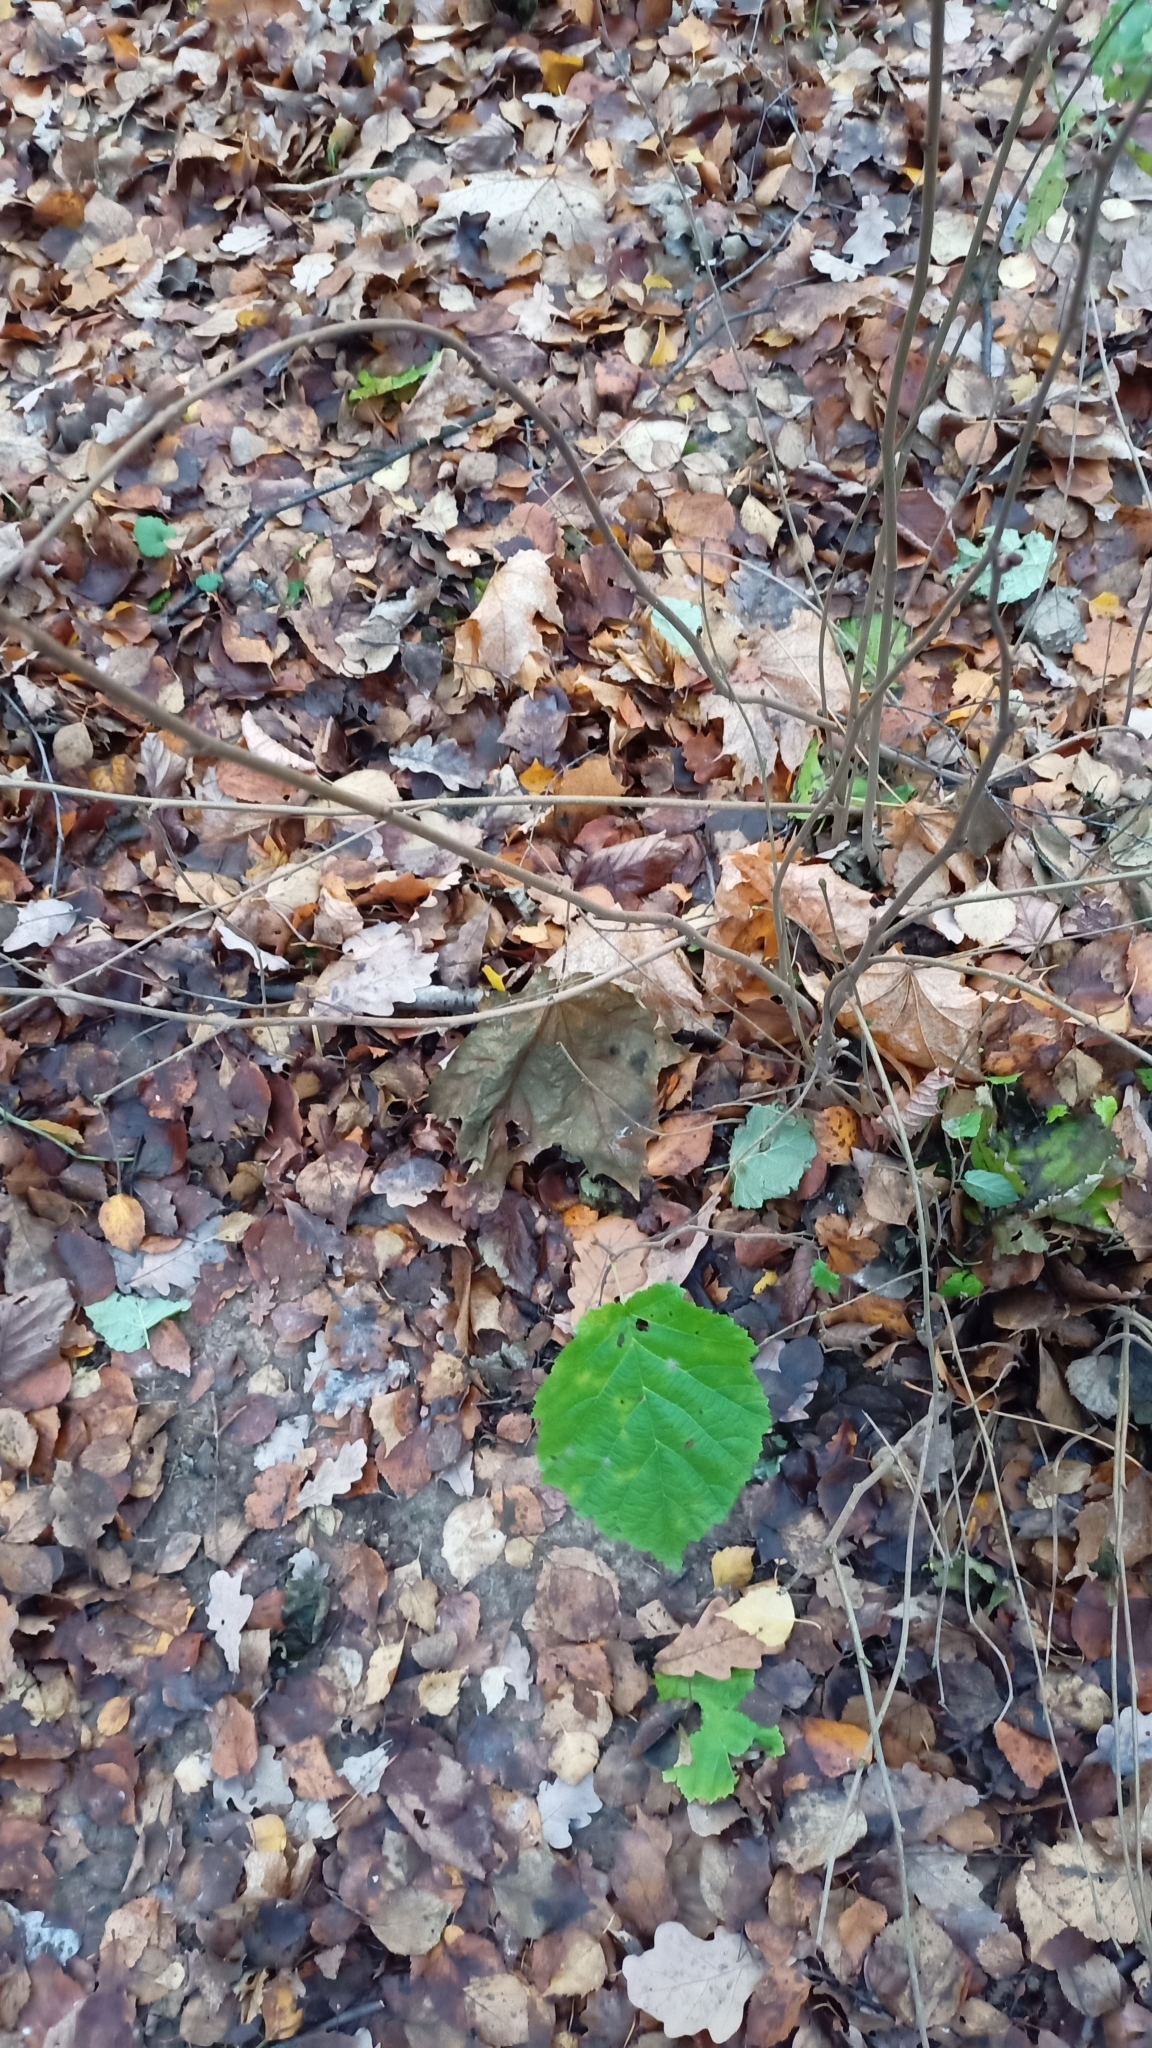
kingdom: Plantae
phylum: Tracheophyta
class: Magnoliopsida
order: Fagales
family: Betulaceae
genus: Corylus
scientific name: Corylus avellana
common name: European hazel
